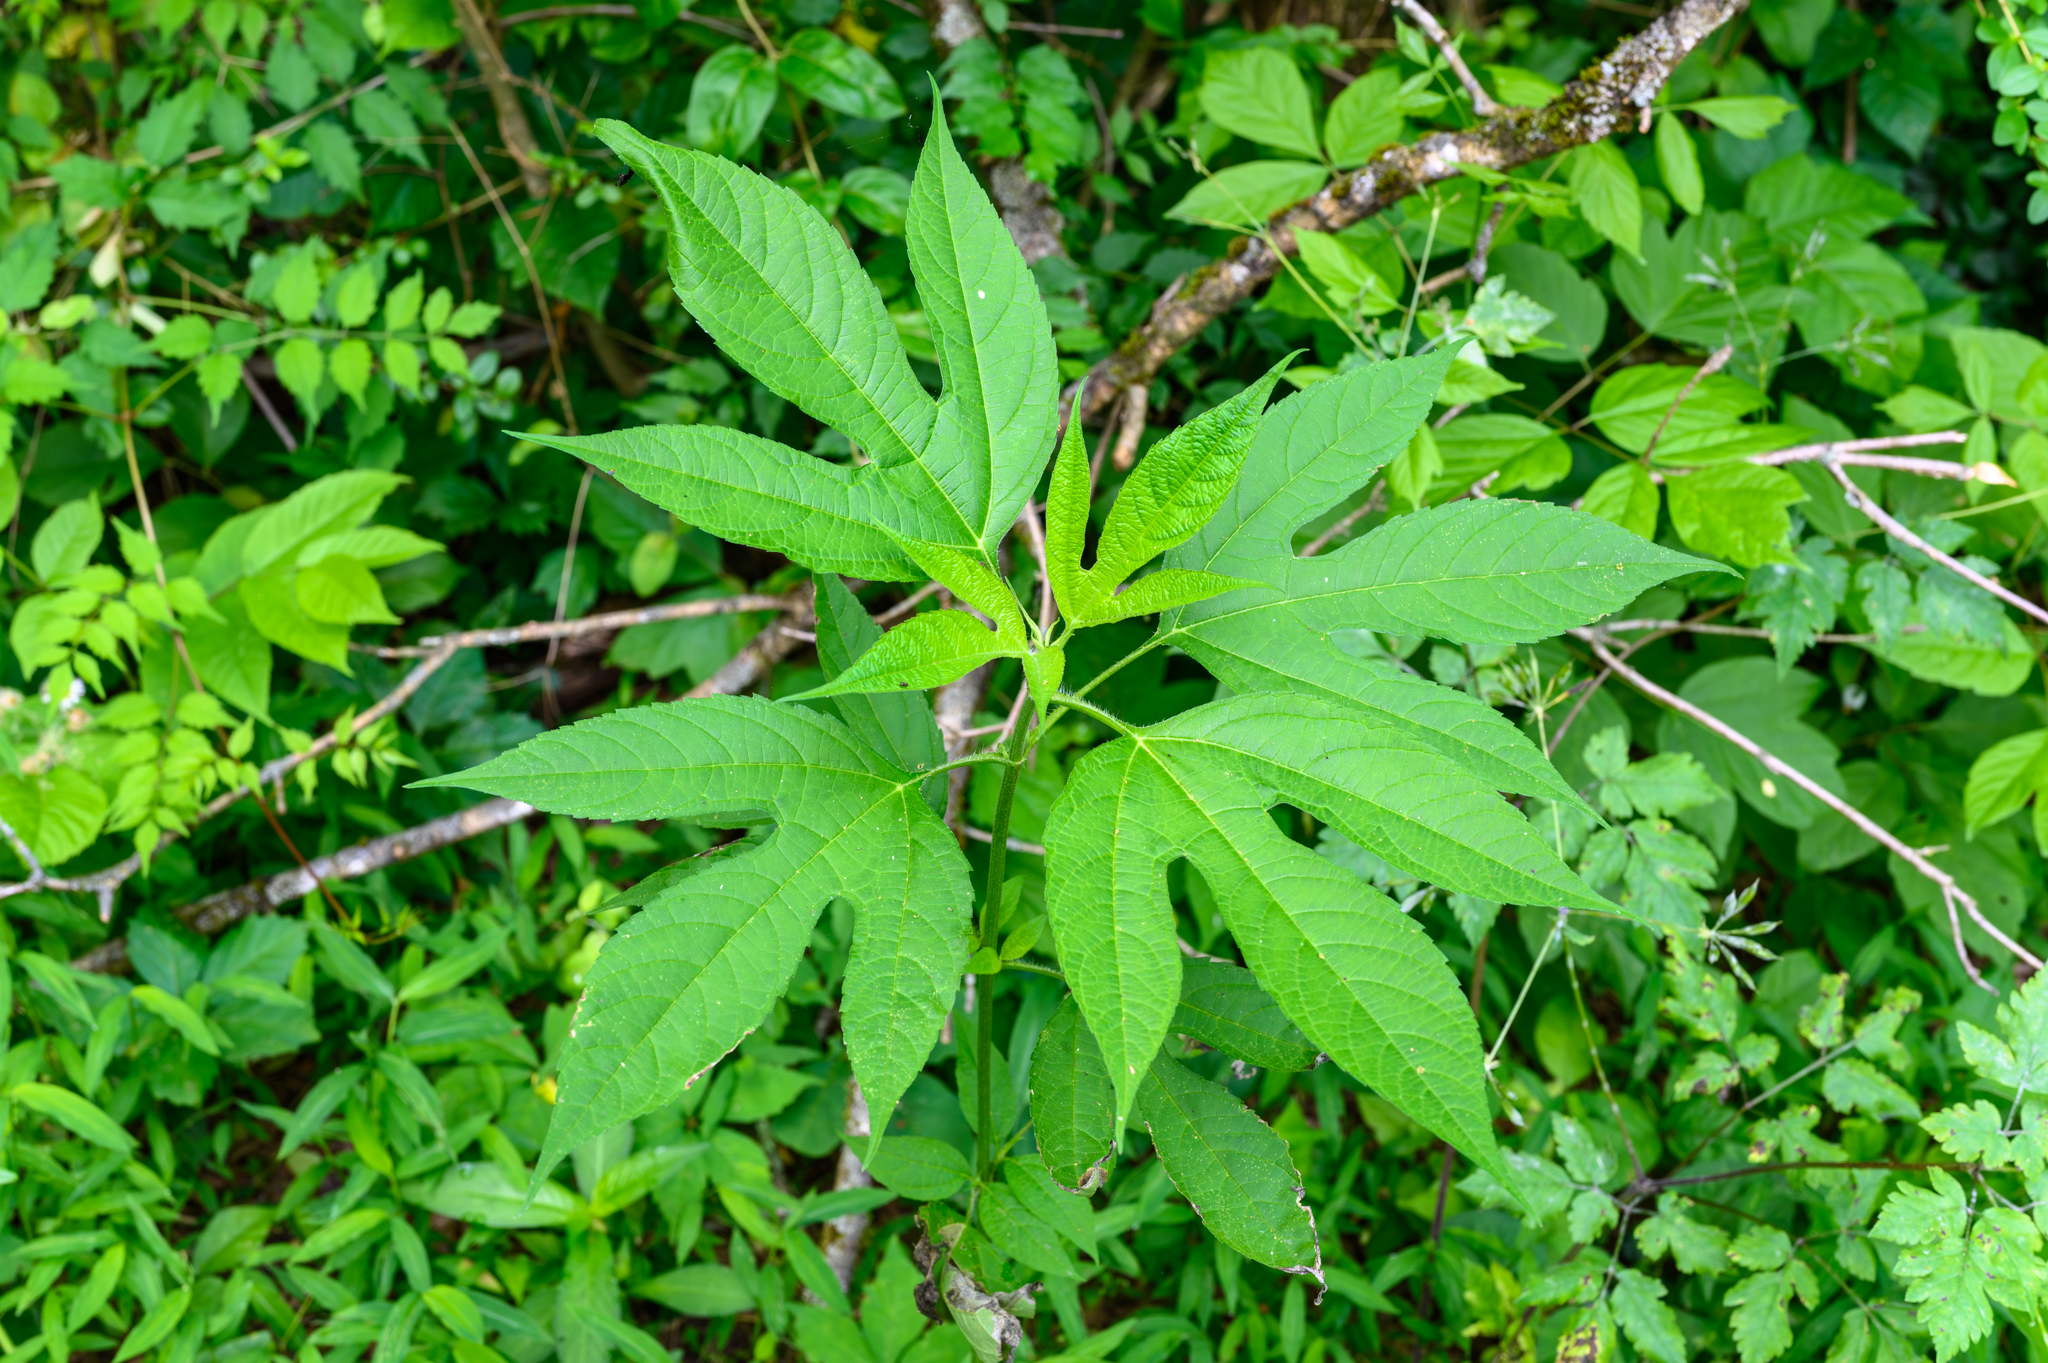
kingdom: Plantae
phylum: Tracheophyta
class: Magnoliopsida
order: Asterales
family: Asteraceae
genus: Ambrosia
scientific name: Ambrosia trifida
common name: Giant ragweed
